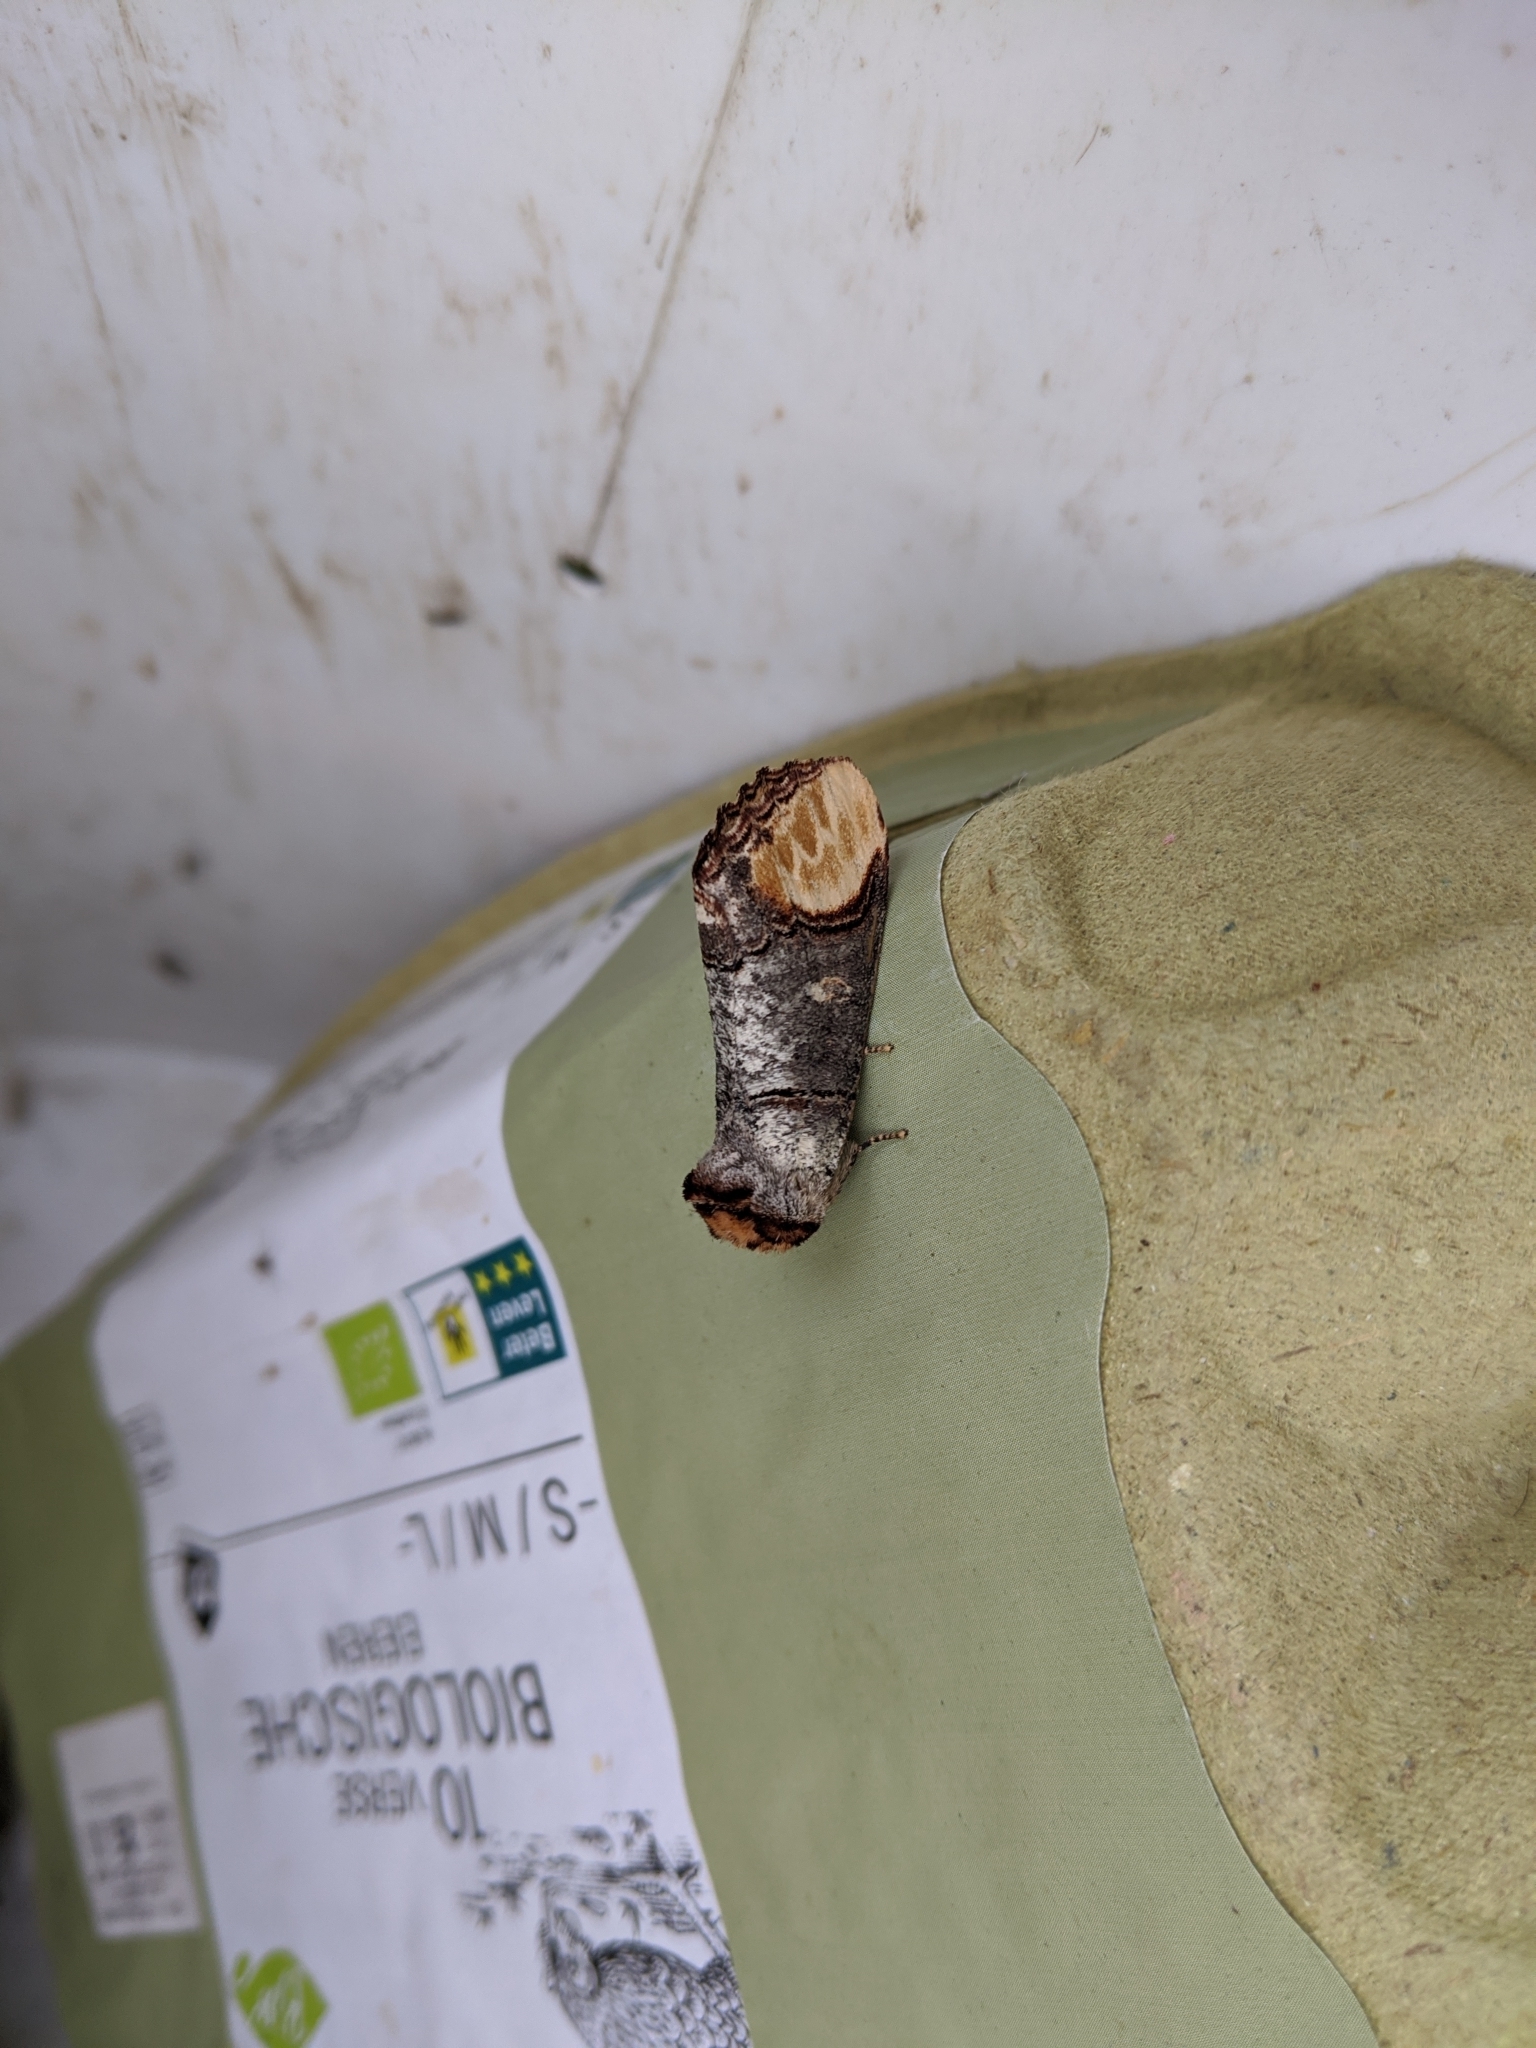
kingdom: Animalia
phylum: Arthropoda
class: Insecta
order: Lepidoptera
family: Notodontidae
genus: Phalera
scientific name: Phalera bucephala
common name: Buff-tip
